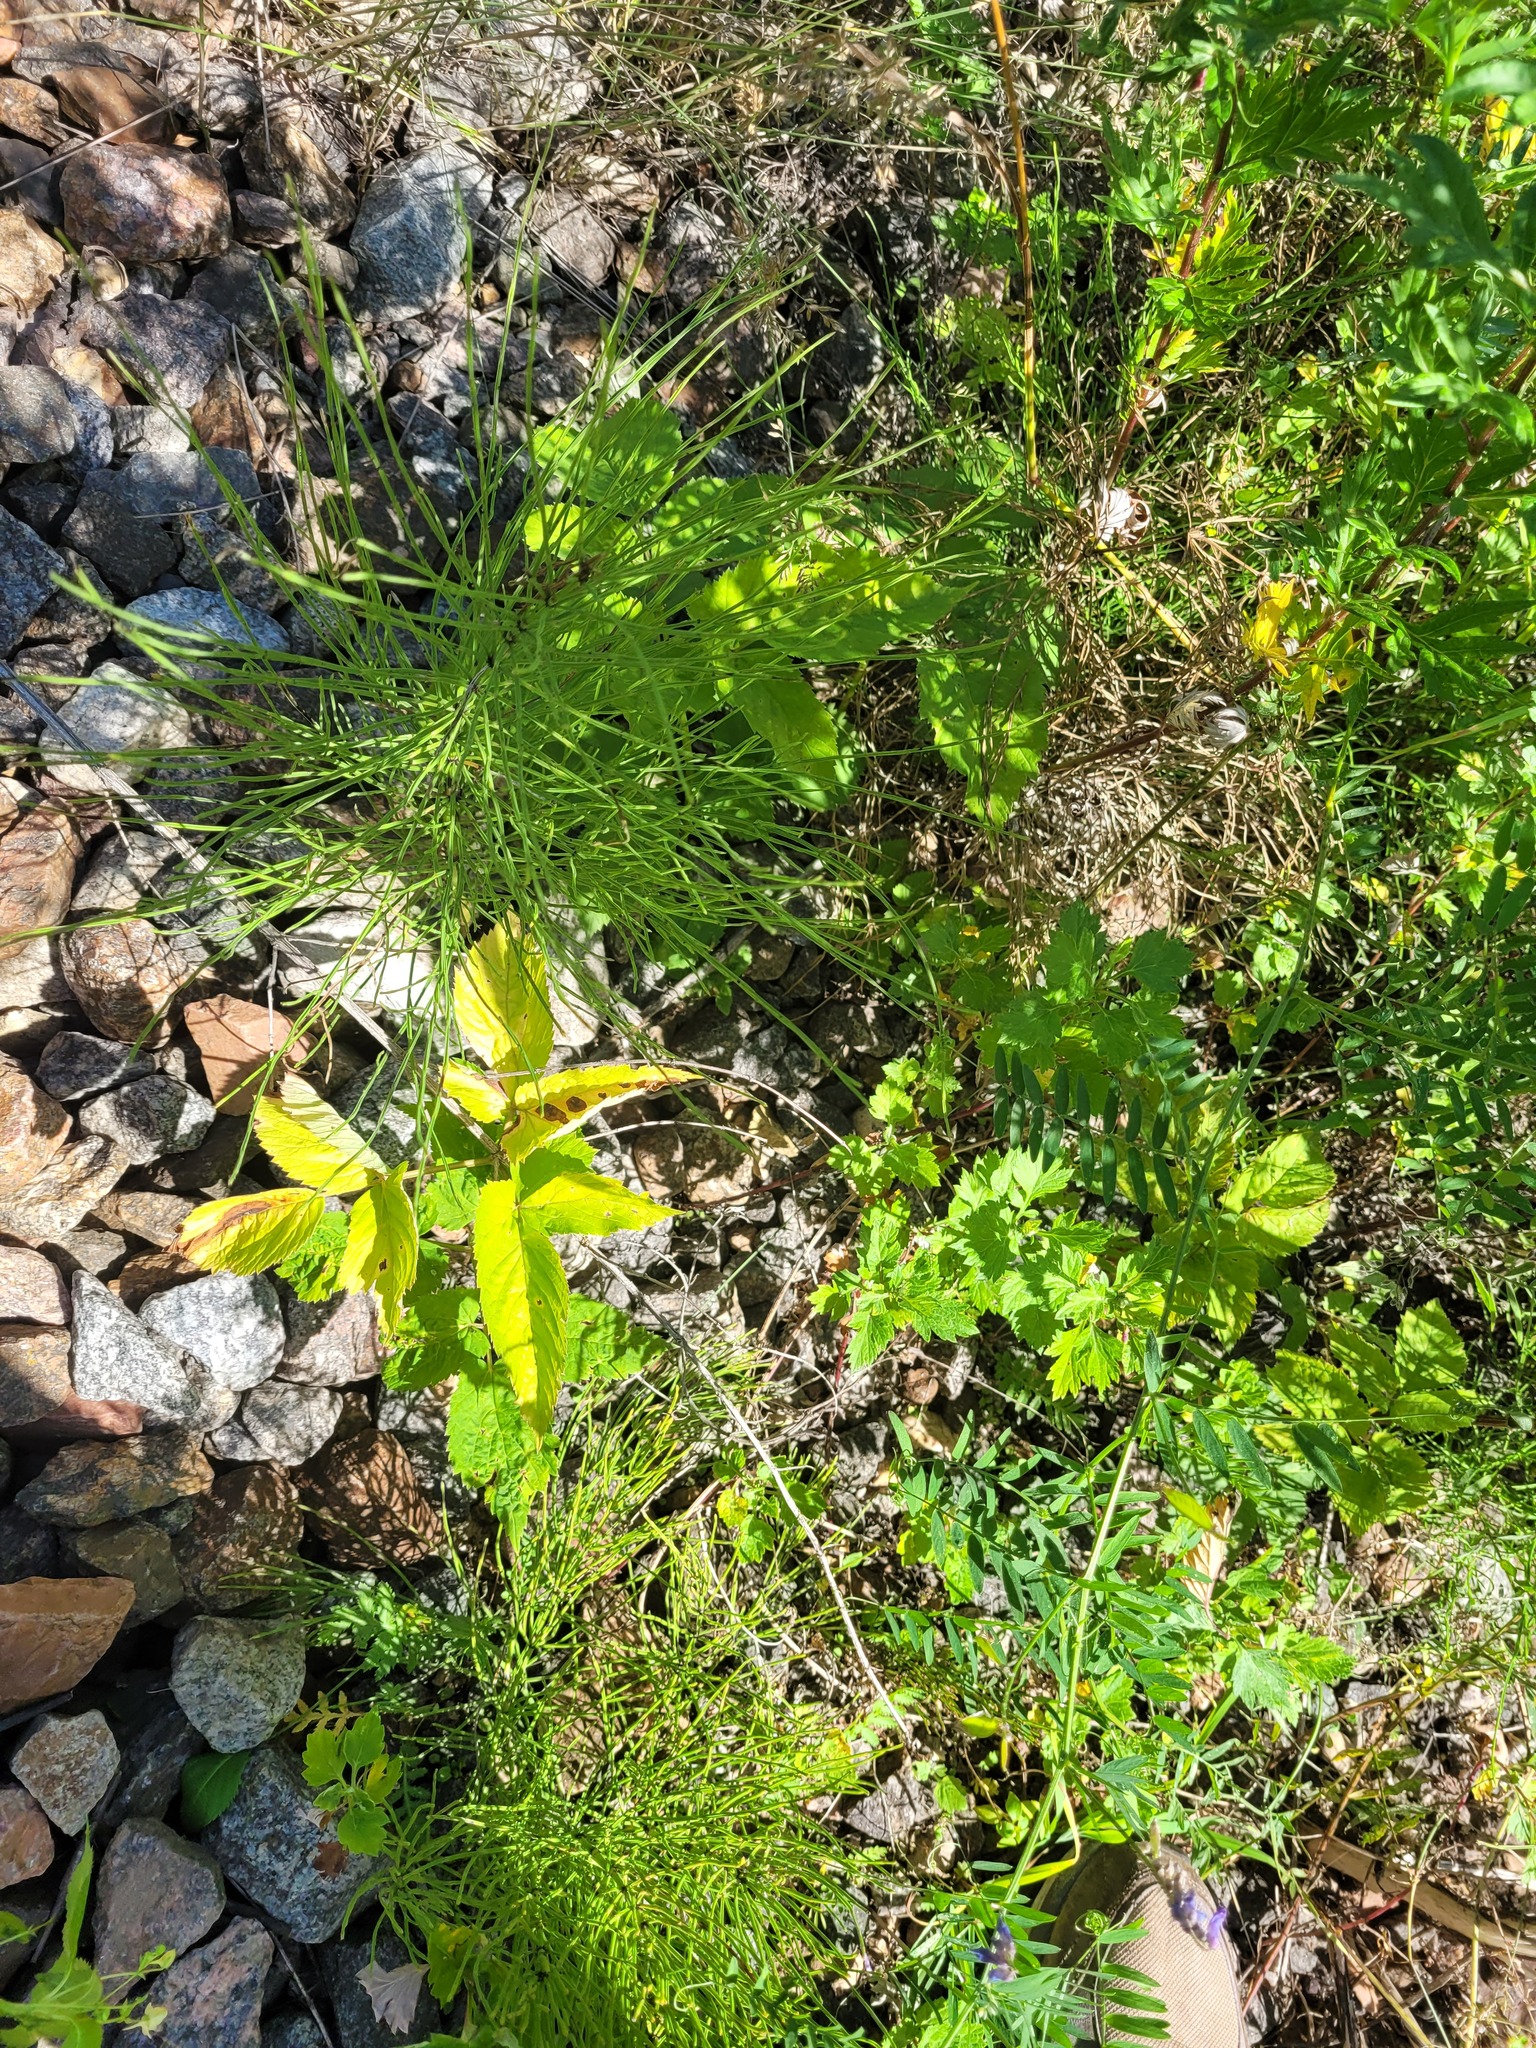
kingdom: Plantae
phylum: Tracheophyta
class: Magnoliopsida
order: Apiales
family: Apiaceae
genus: Aegopodium
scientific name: Aegopodium podagraria
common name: Ground-elder
